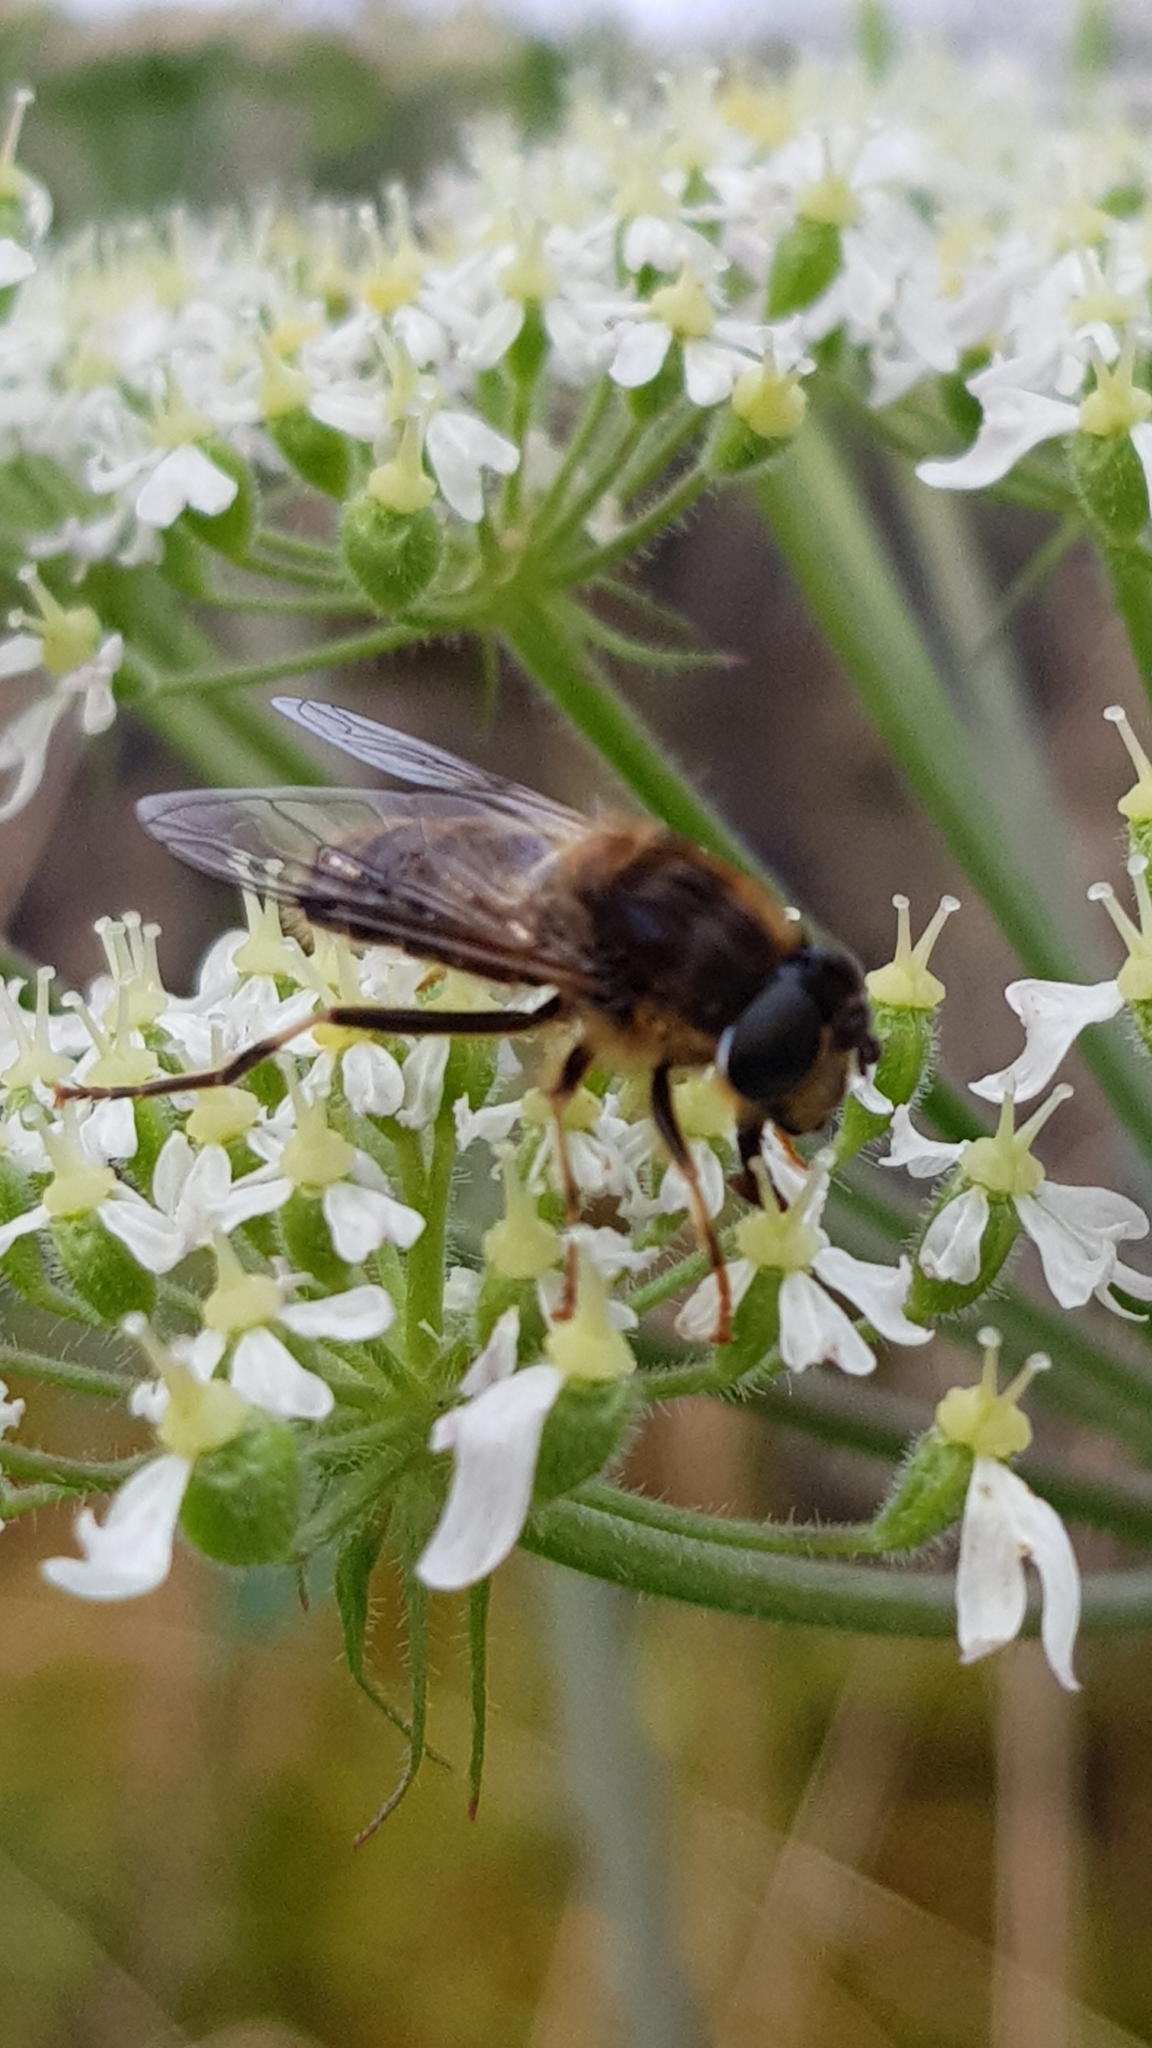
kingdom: Animalia
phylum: Arthropoda
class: Insecta
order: Diptera
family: Syrphidae
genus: Eristalis
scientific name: Eristalis pertinax
